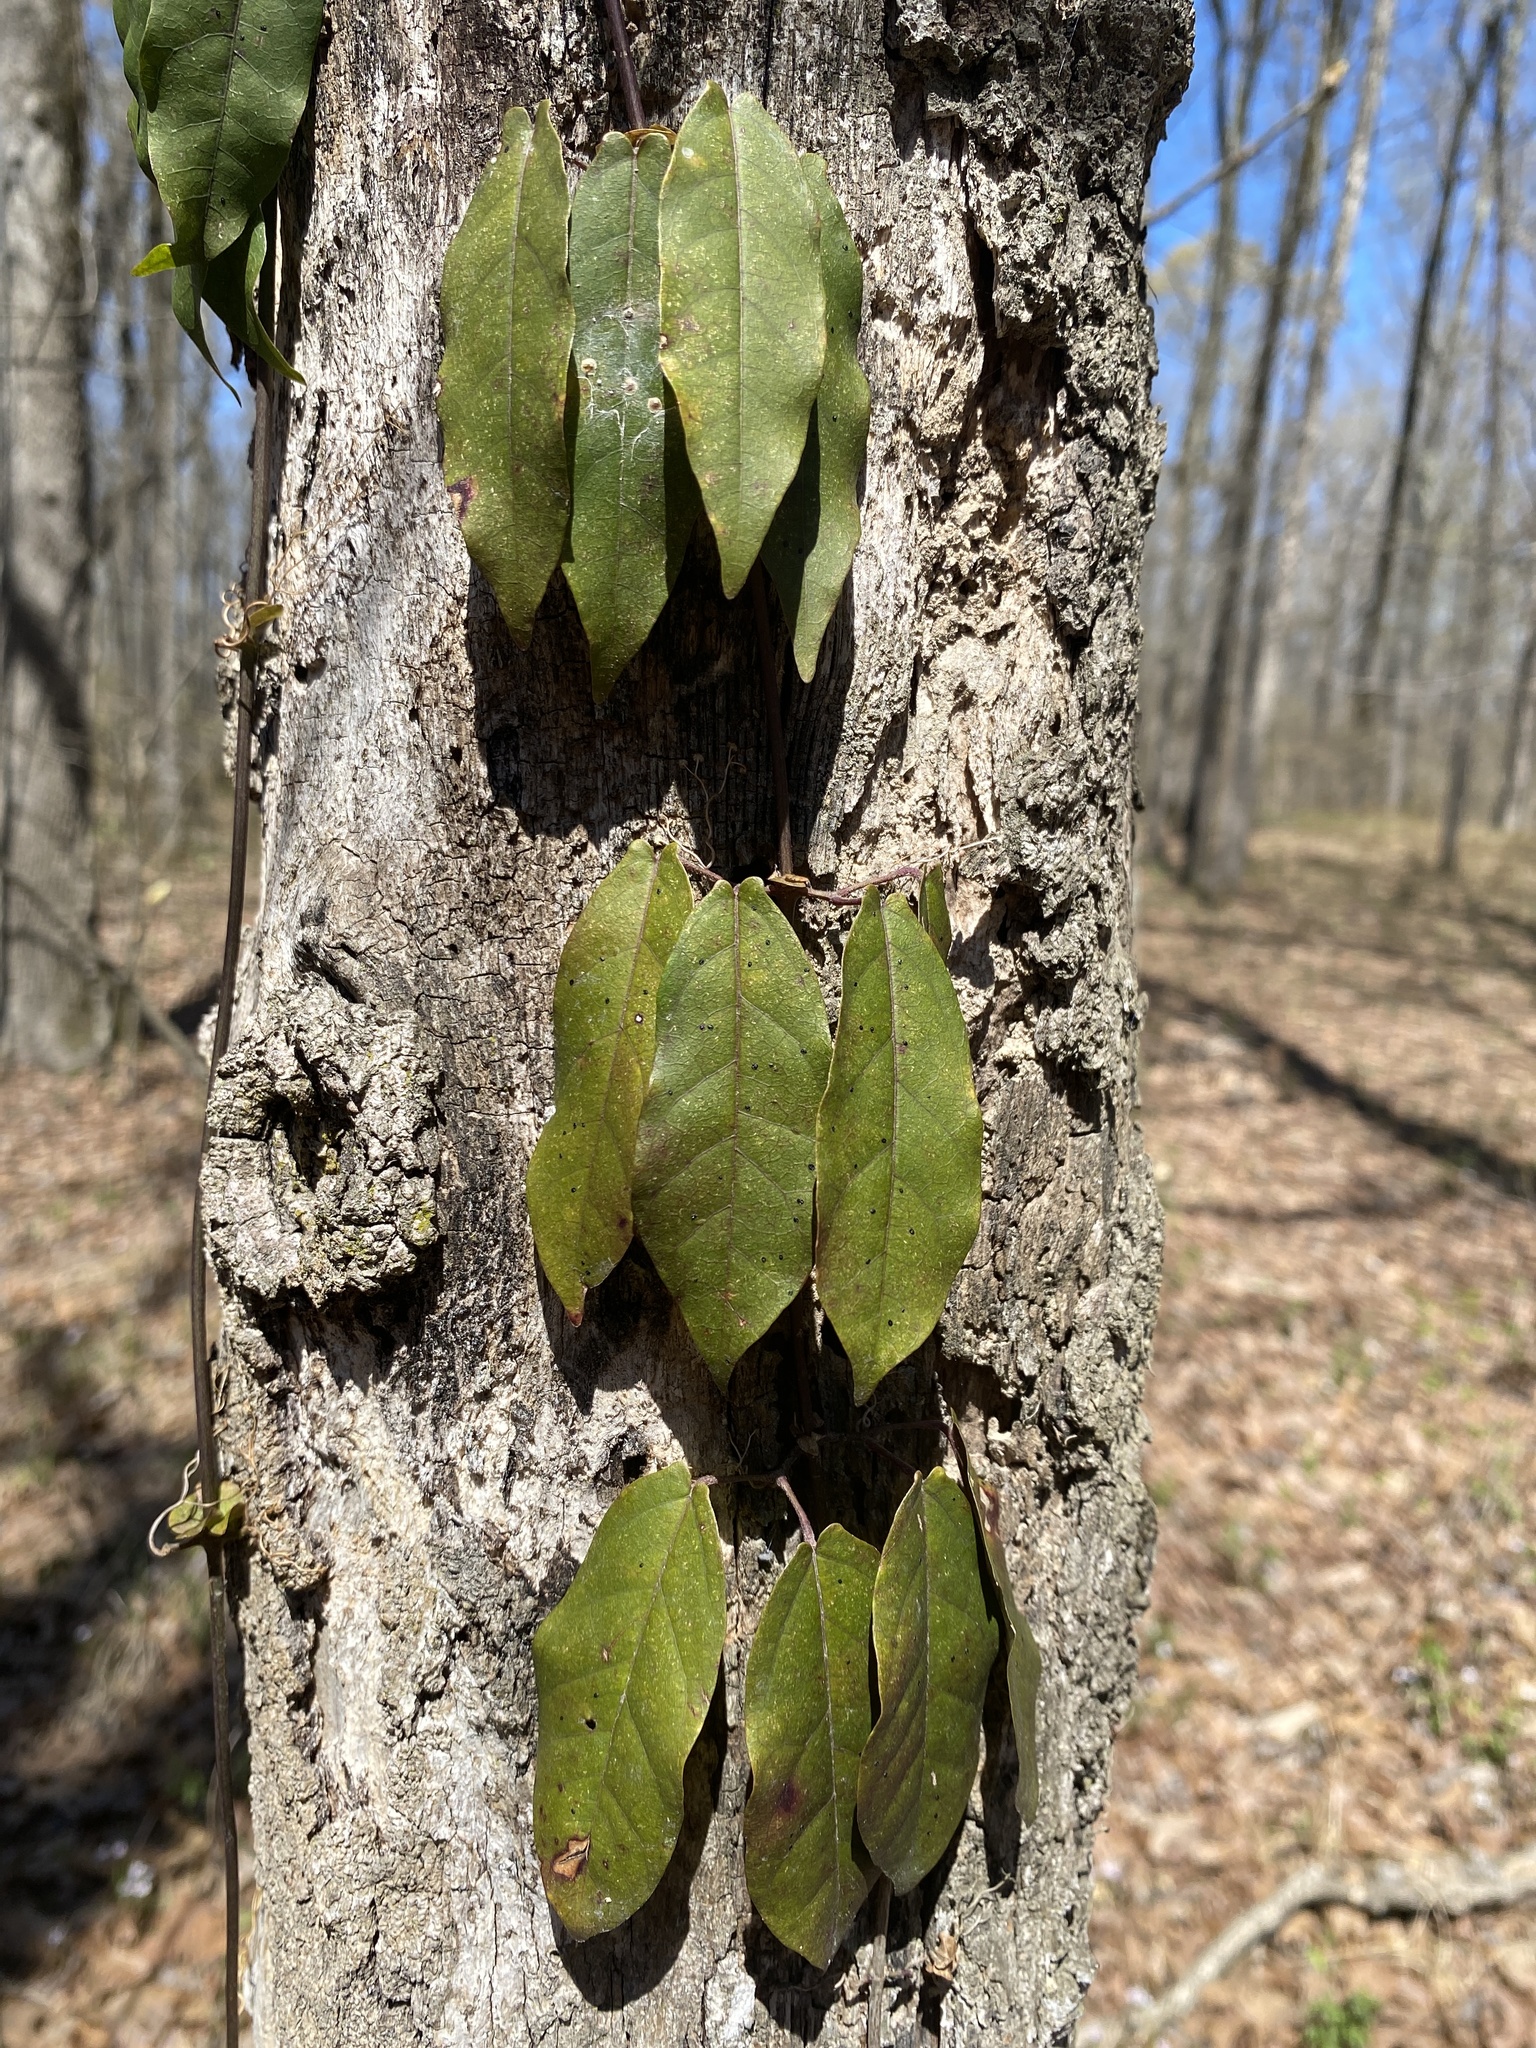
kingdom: Plantae
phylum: Tracheophyta
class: Magnoliopsida
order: Lamiales
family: Bignoniaceae
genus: Bignonia
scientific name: Bignonia capreolata
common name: Crossvine
